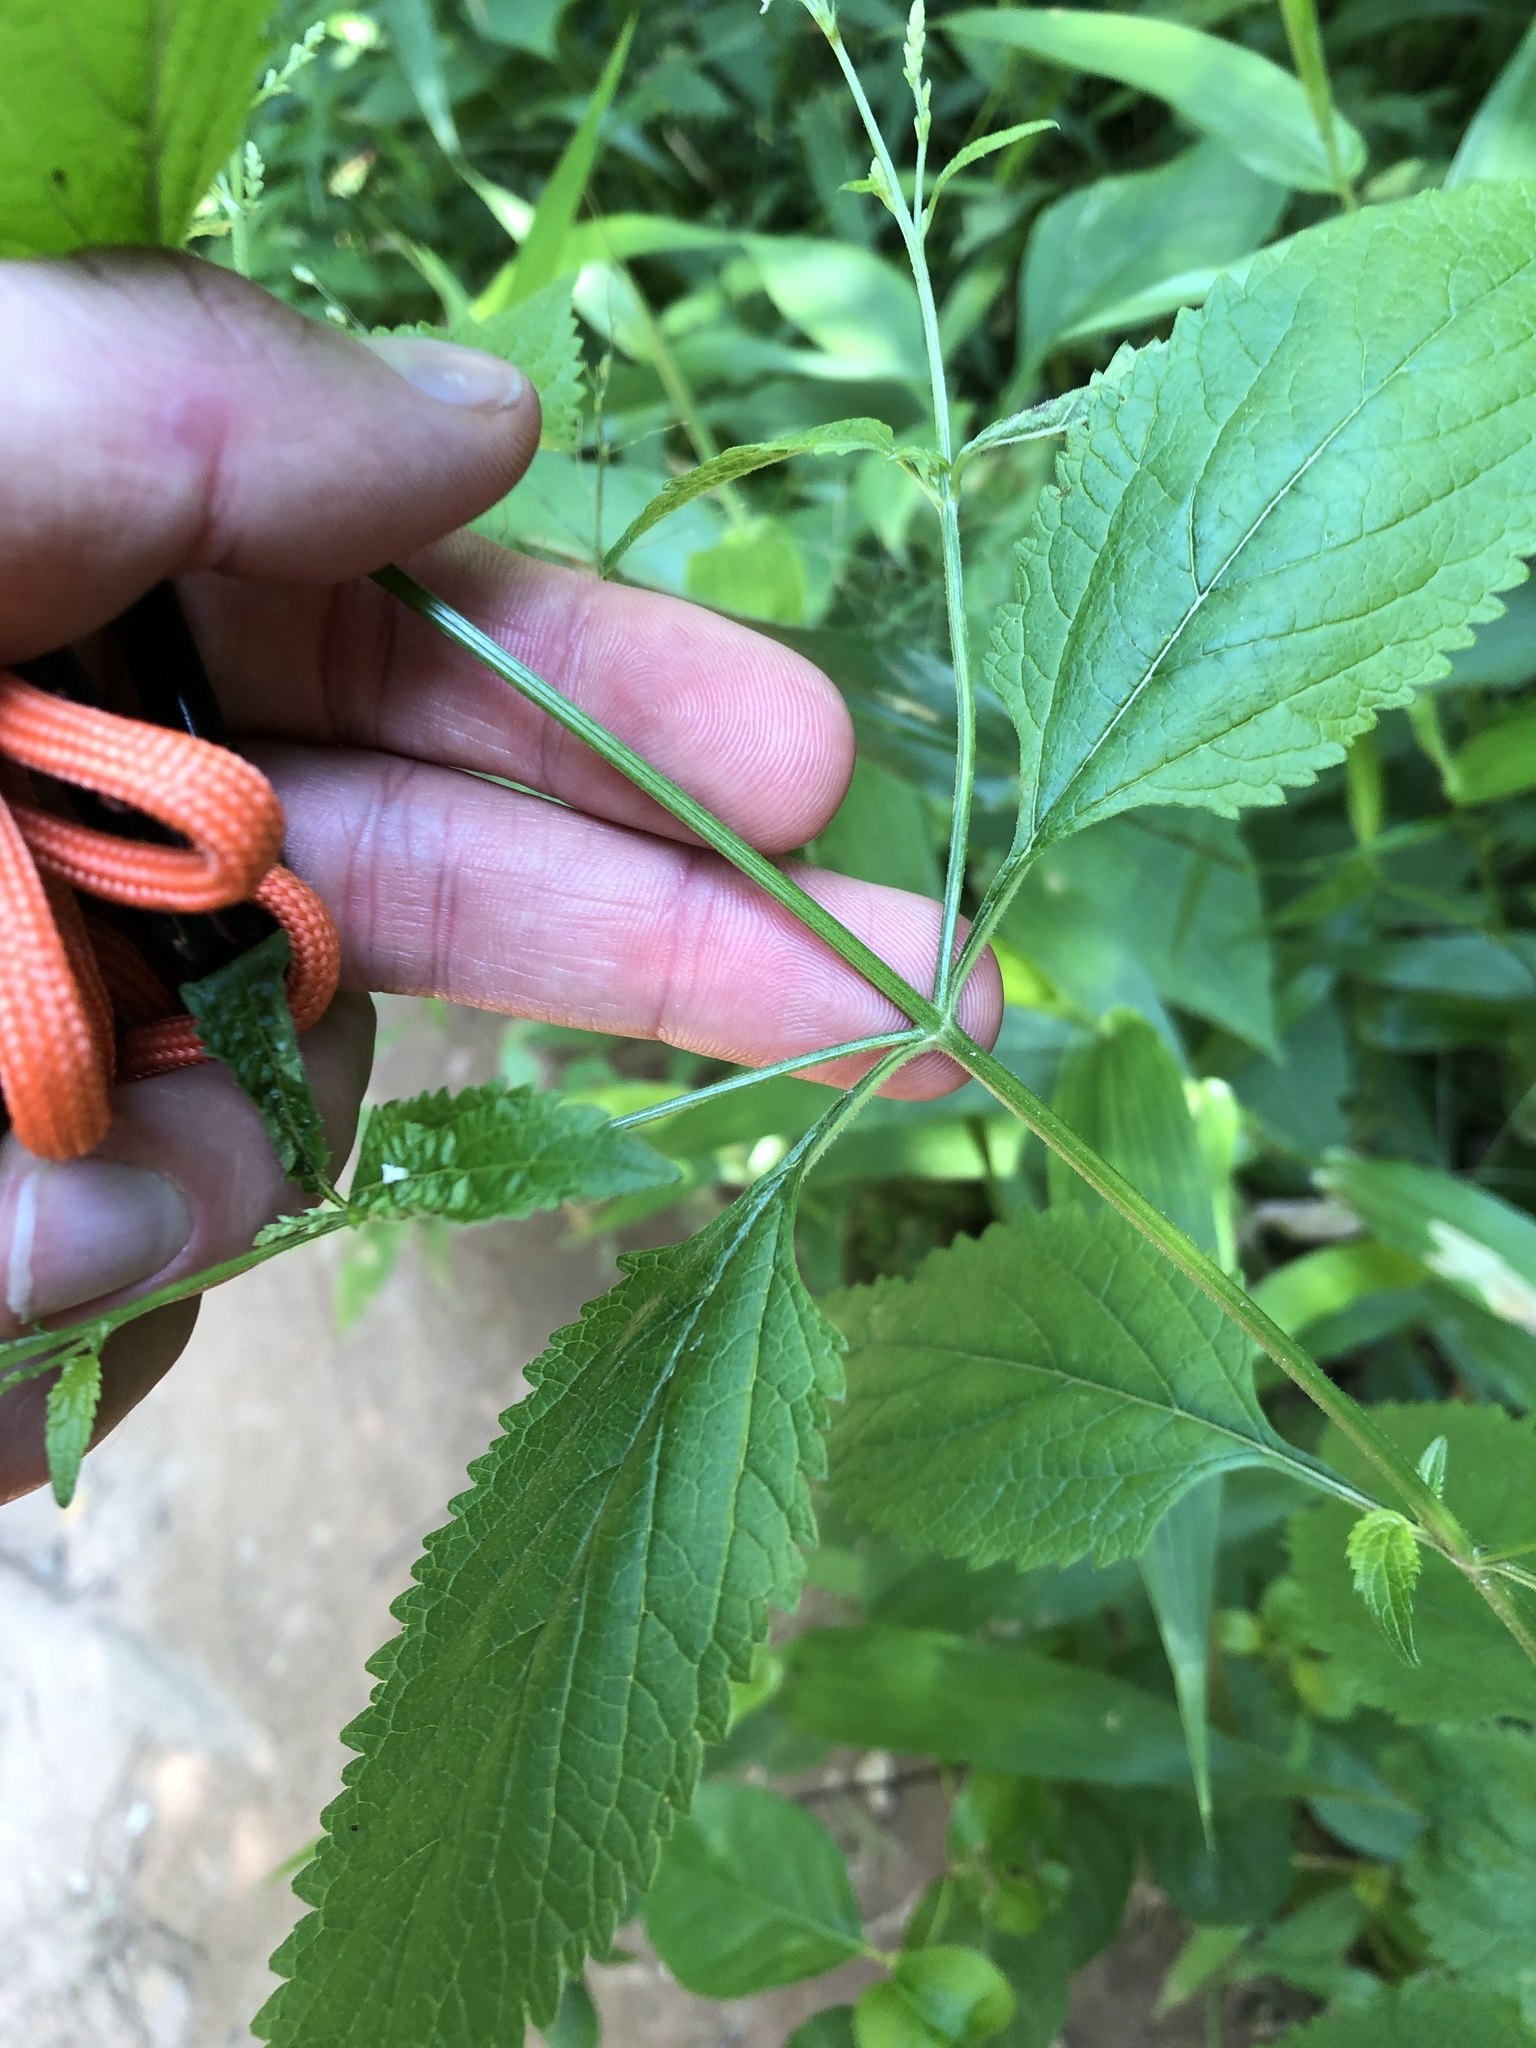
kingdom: Plantae
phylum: Tracheophyta
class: Magnoliopsida
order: Lamiales
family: Verbenaceae
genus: Verbena
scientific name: Verbena urticifolia
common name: Nettle-leaved vervain
